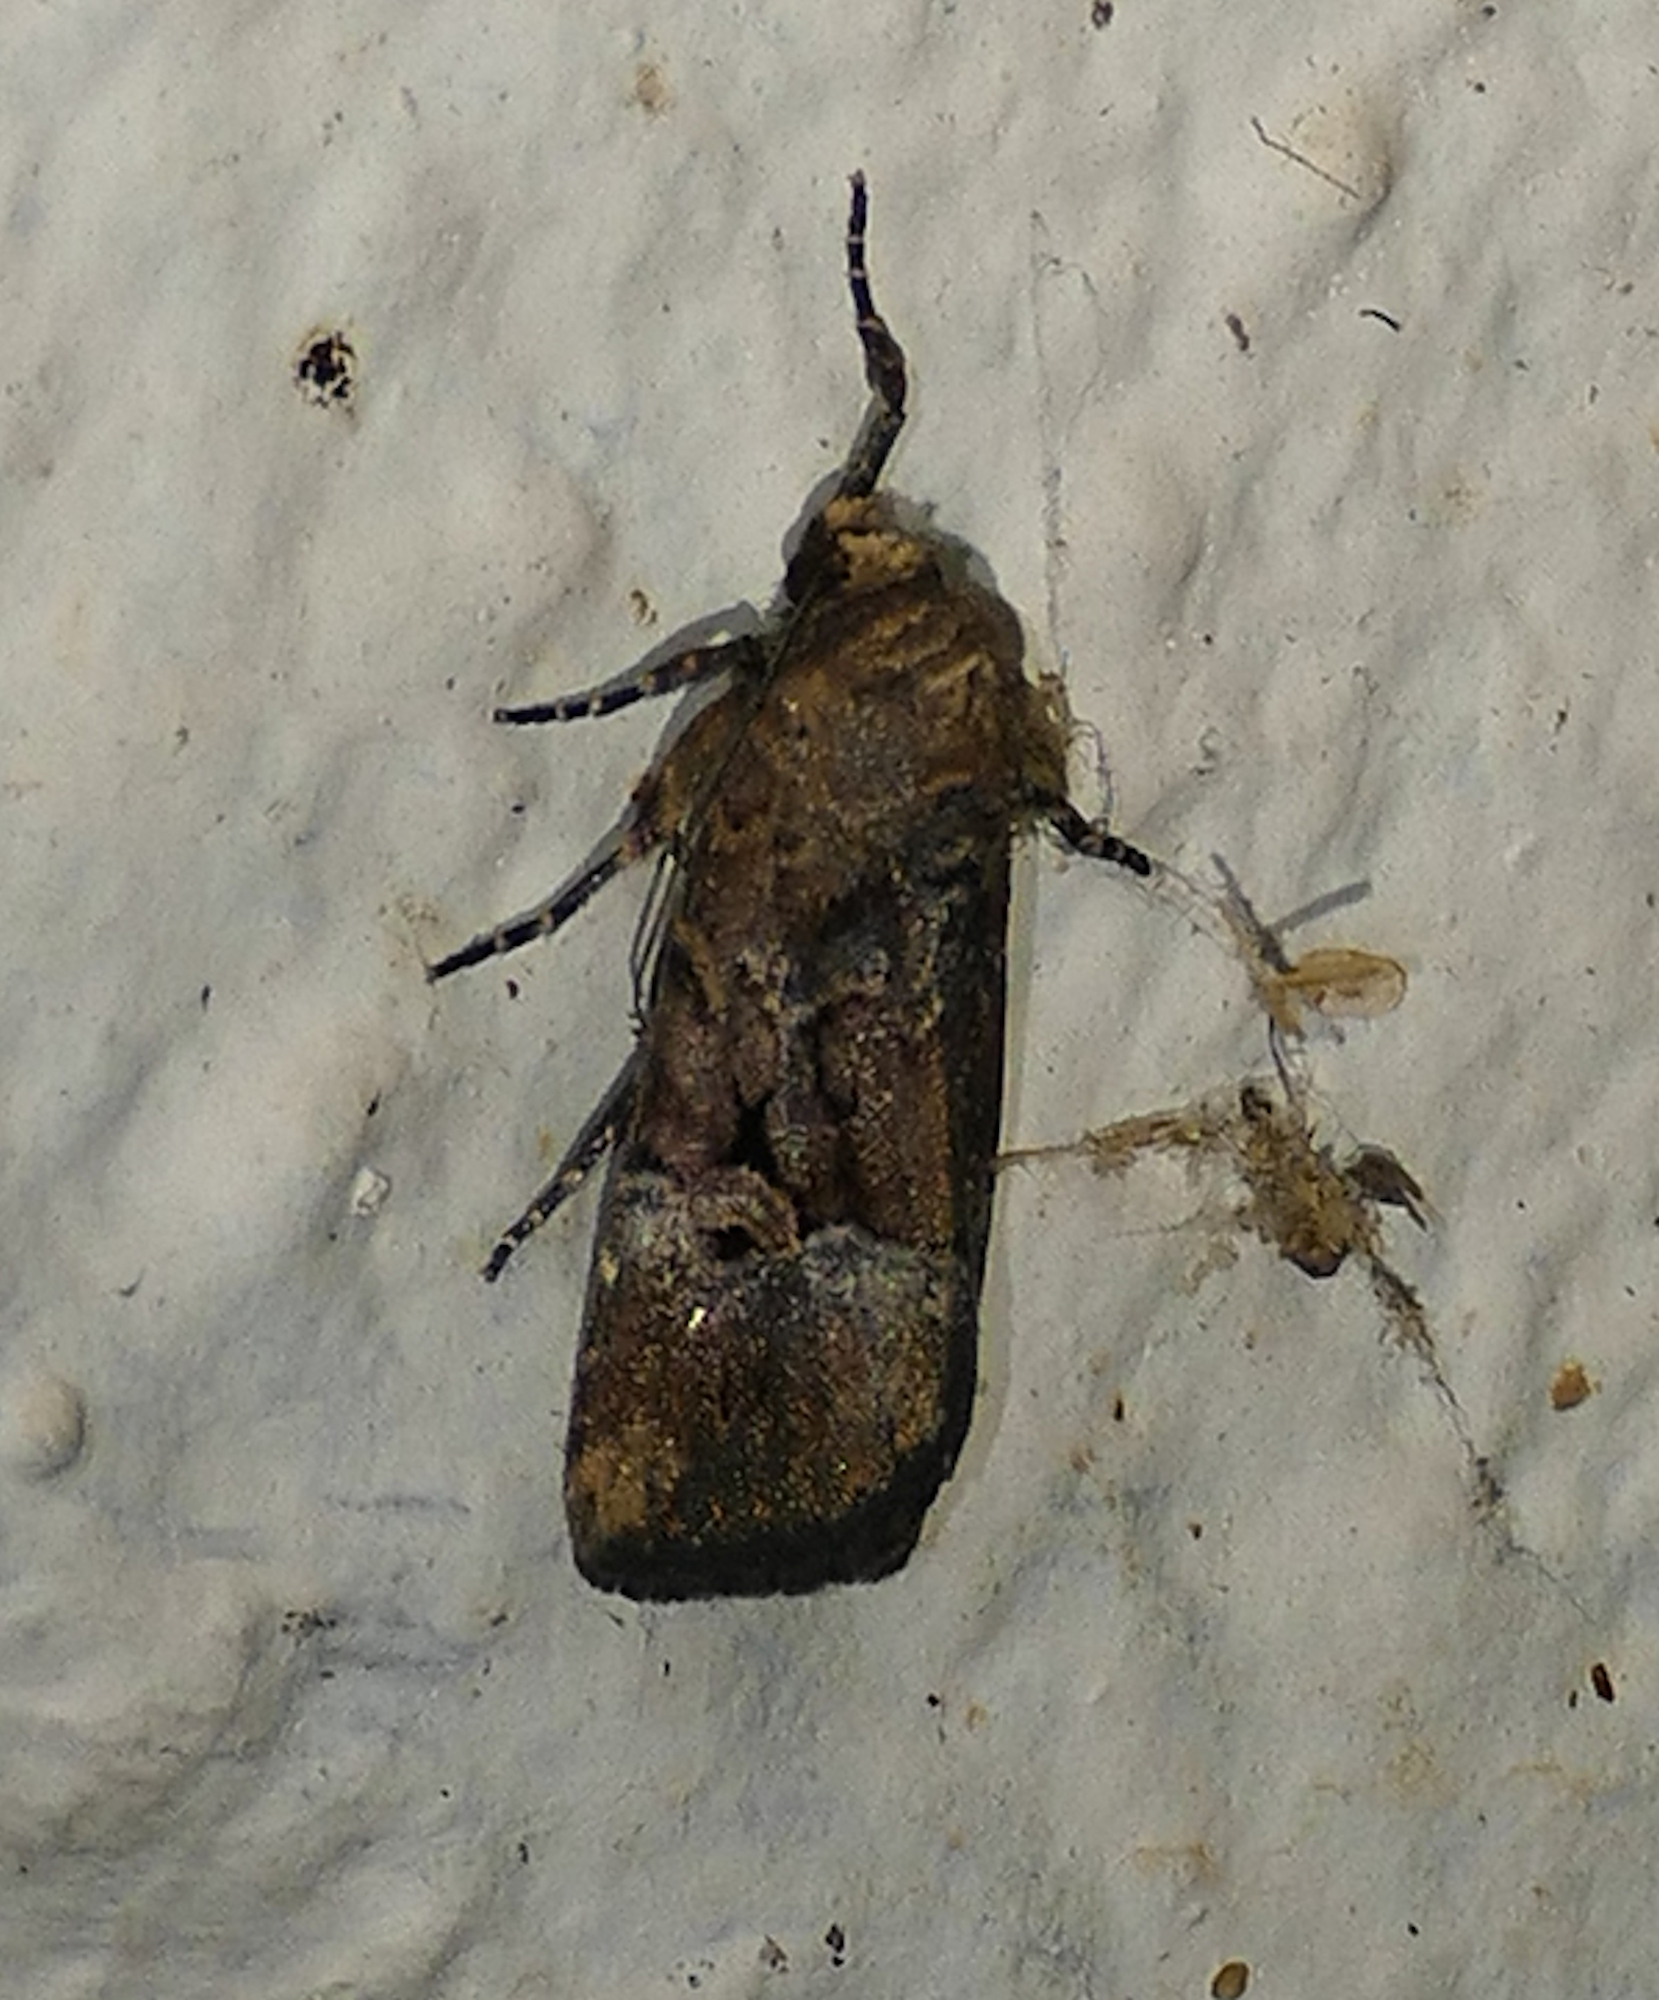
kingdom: Animalia
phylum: Arthropoda
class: Insecta
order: Lepidoptera
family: Noctuidae
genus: Elaphria
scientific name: Elaphria chalcedonia
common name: Chalcedony midget
